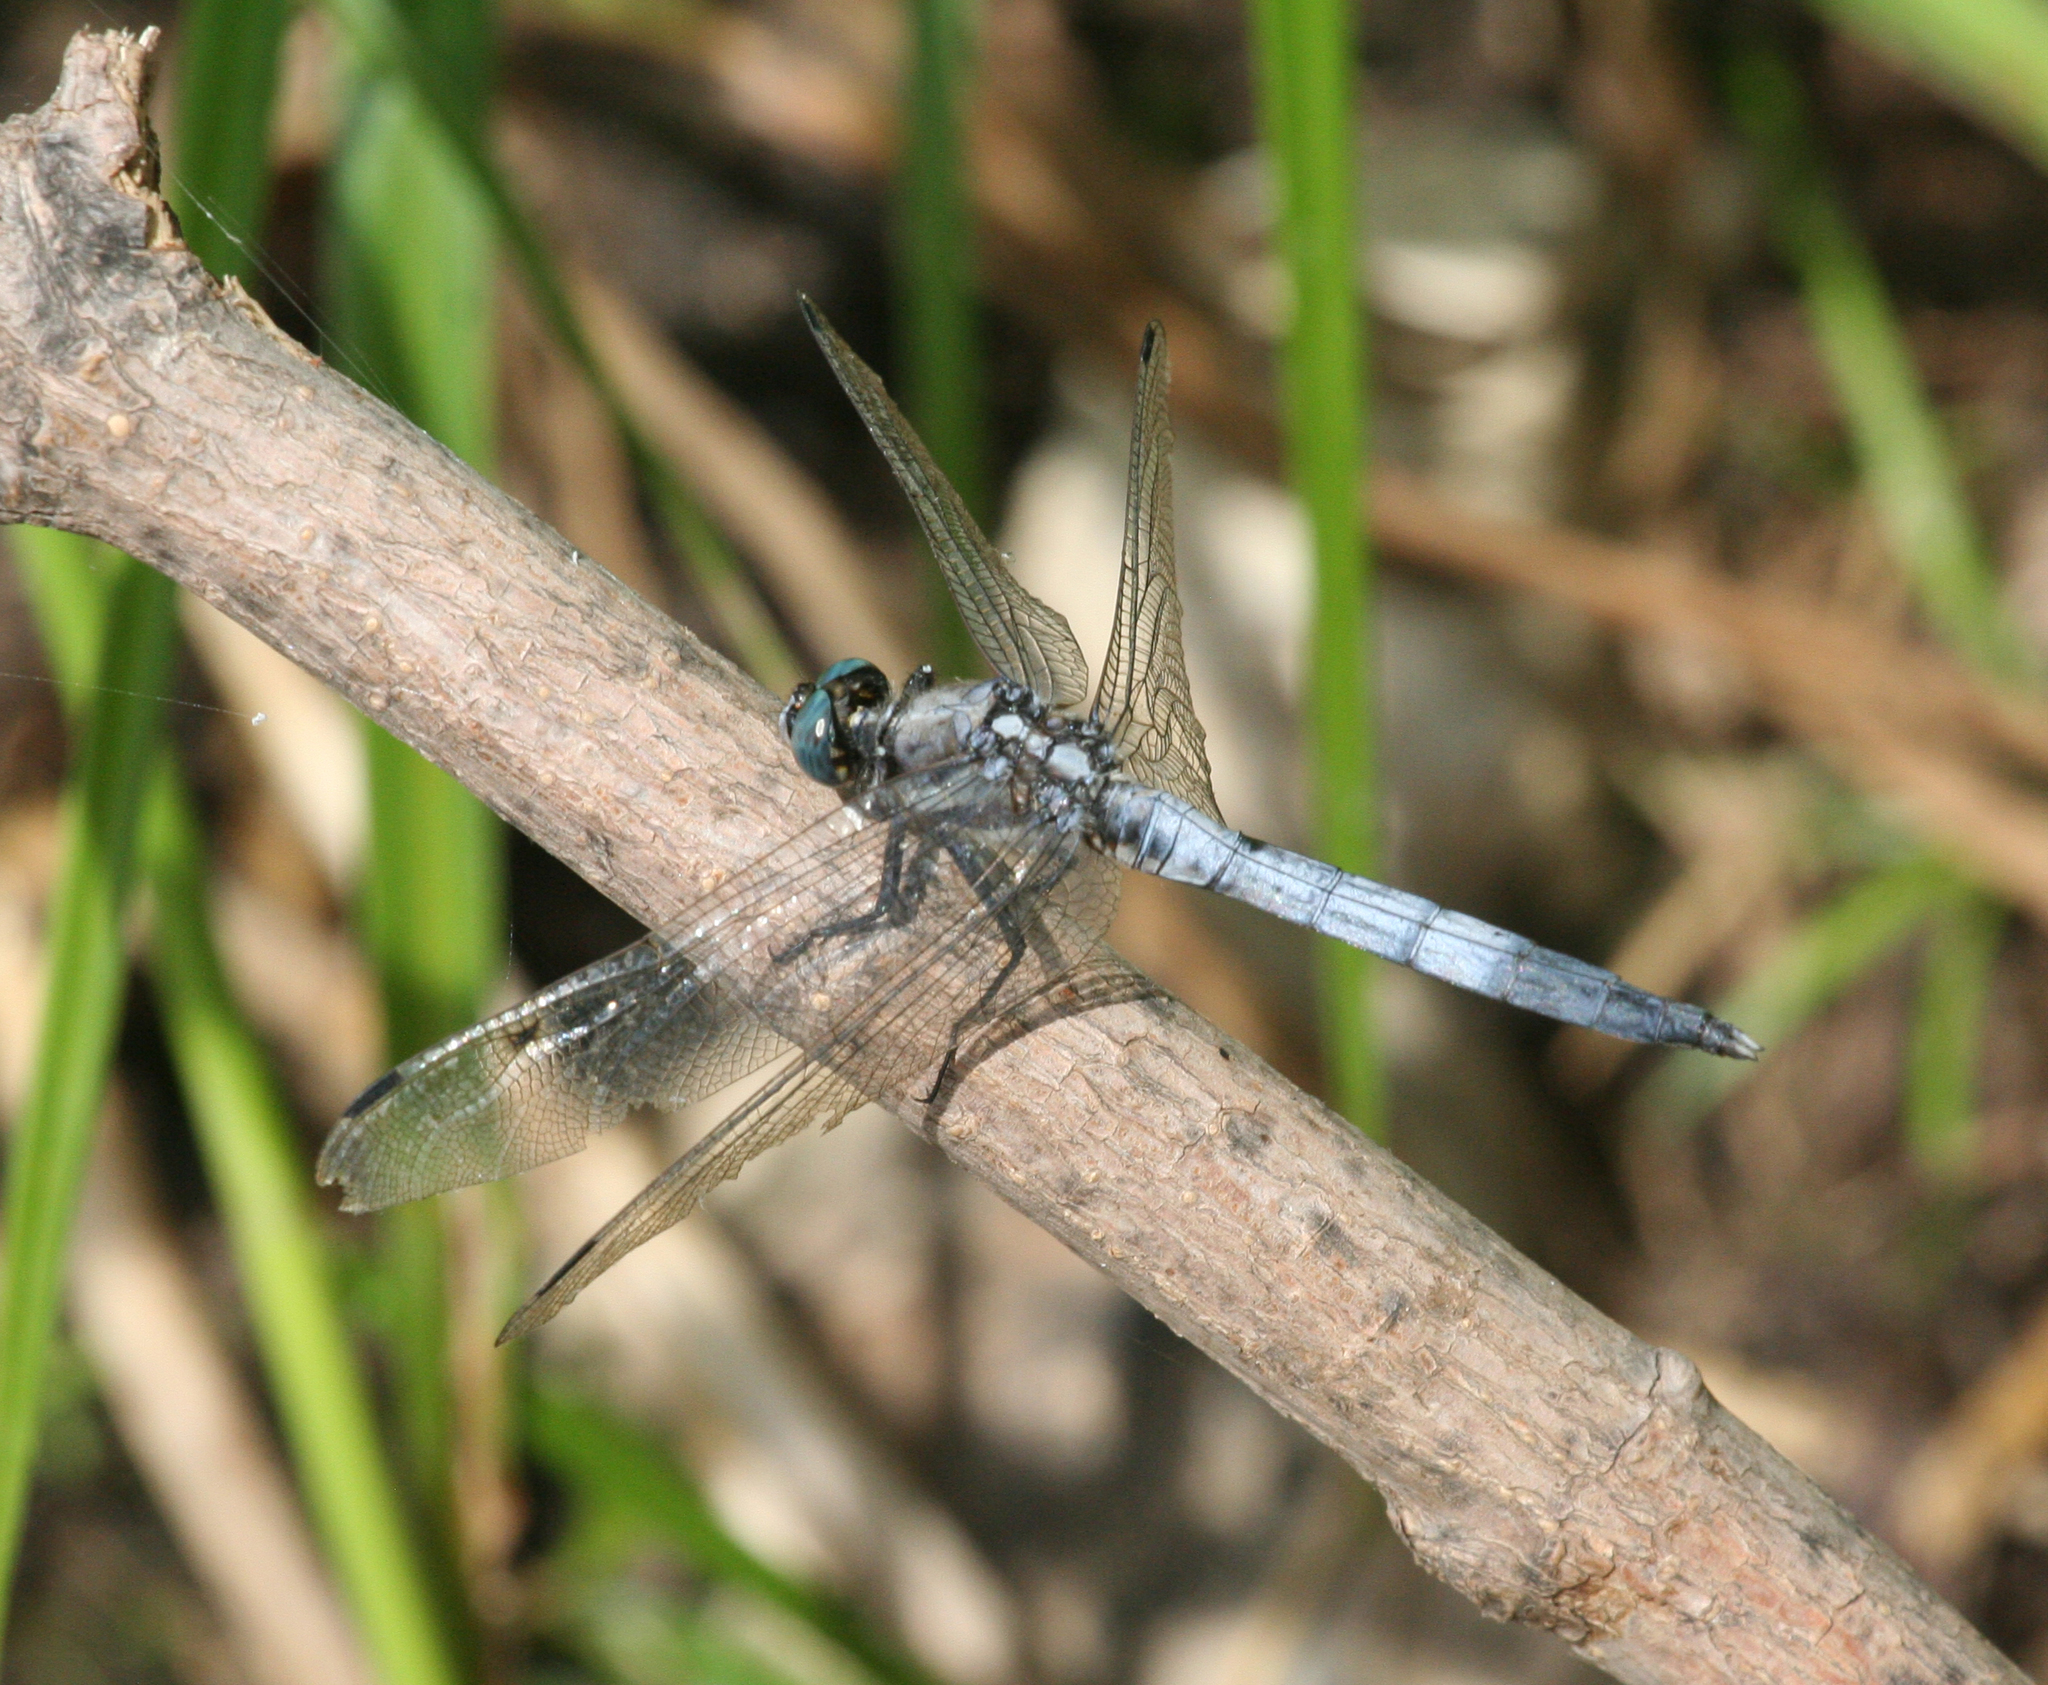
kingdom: Animalia
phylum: Arthropoda
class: Insecta
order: Odonata
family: Libellulidae
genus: Orthetrum
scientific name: Orthetrum albistylum
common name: White-tailed skimmer
